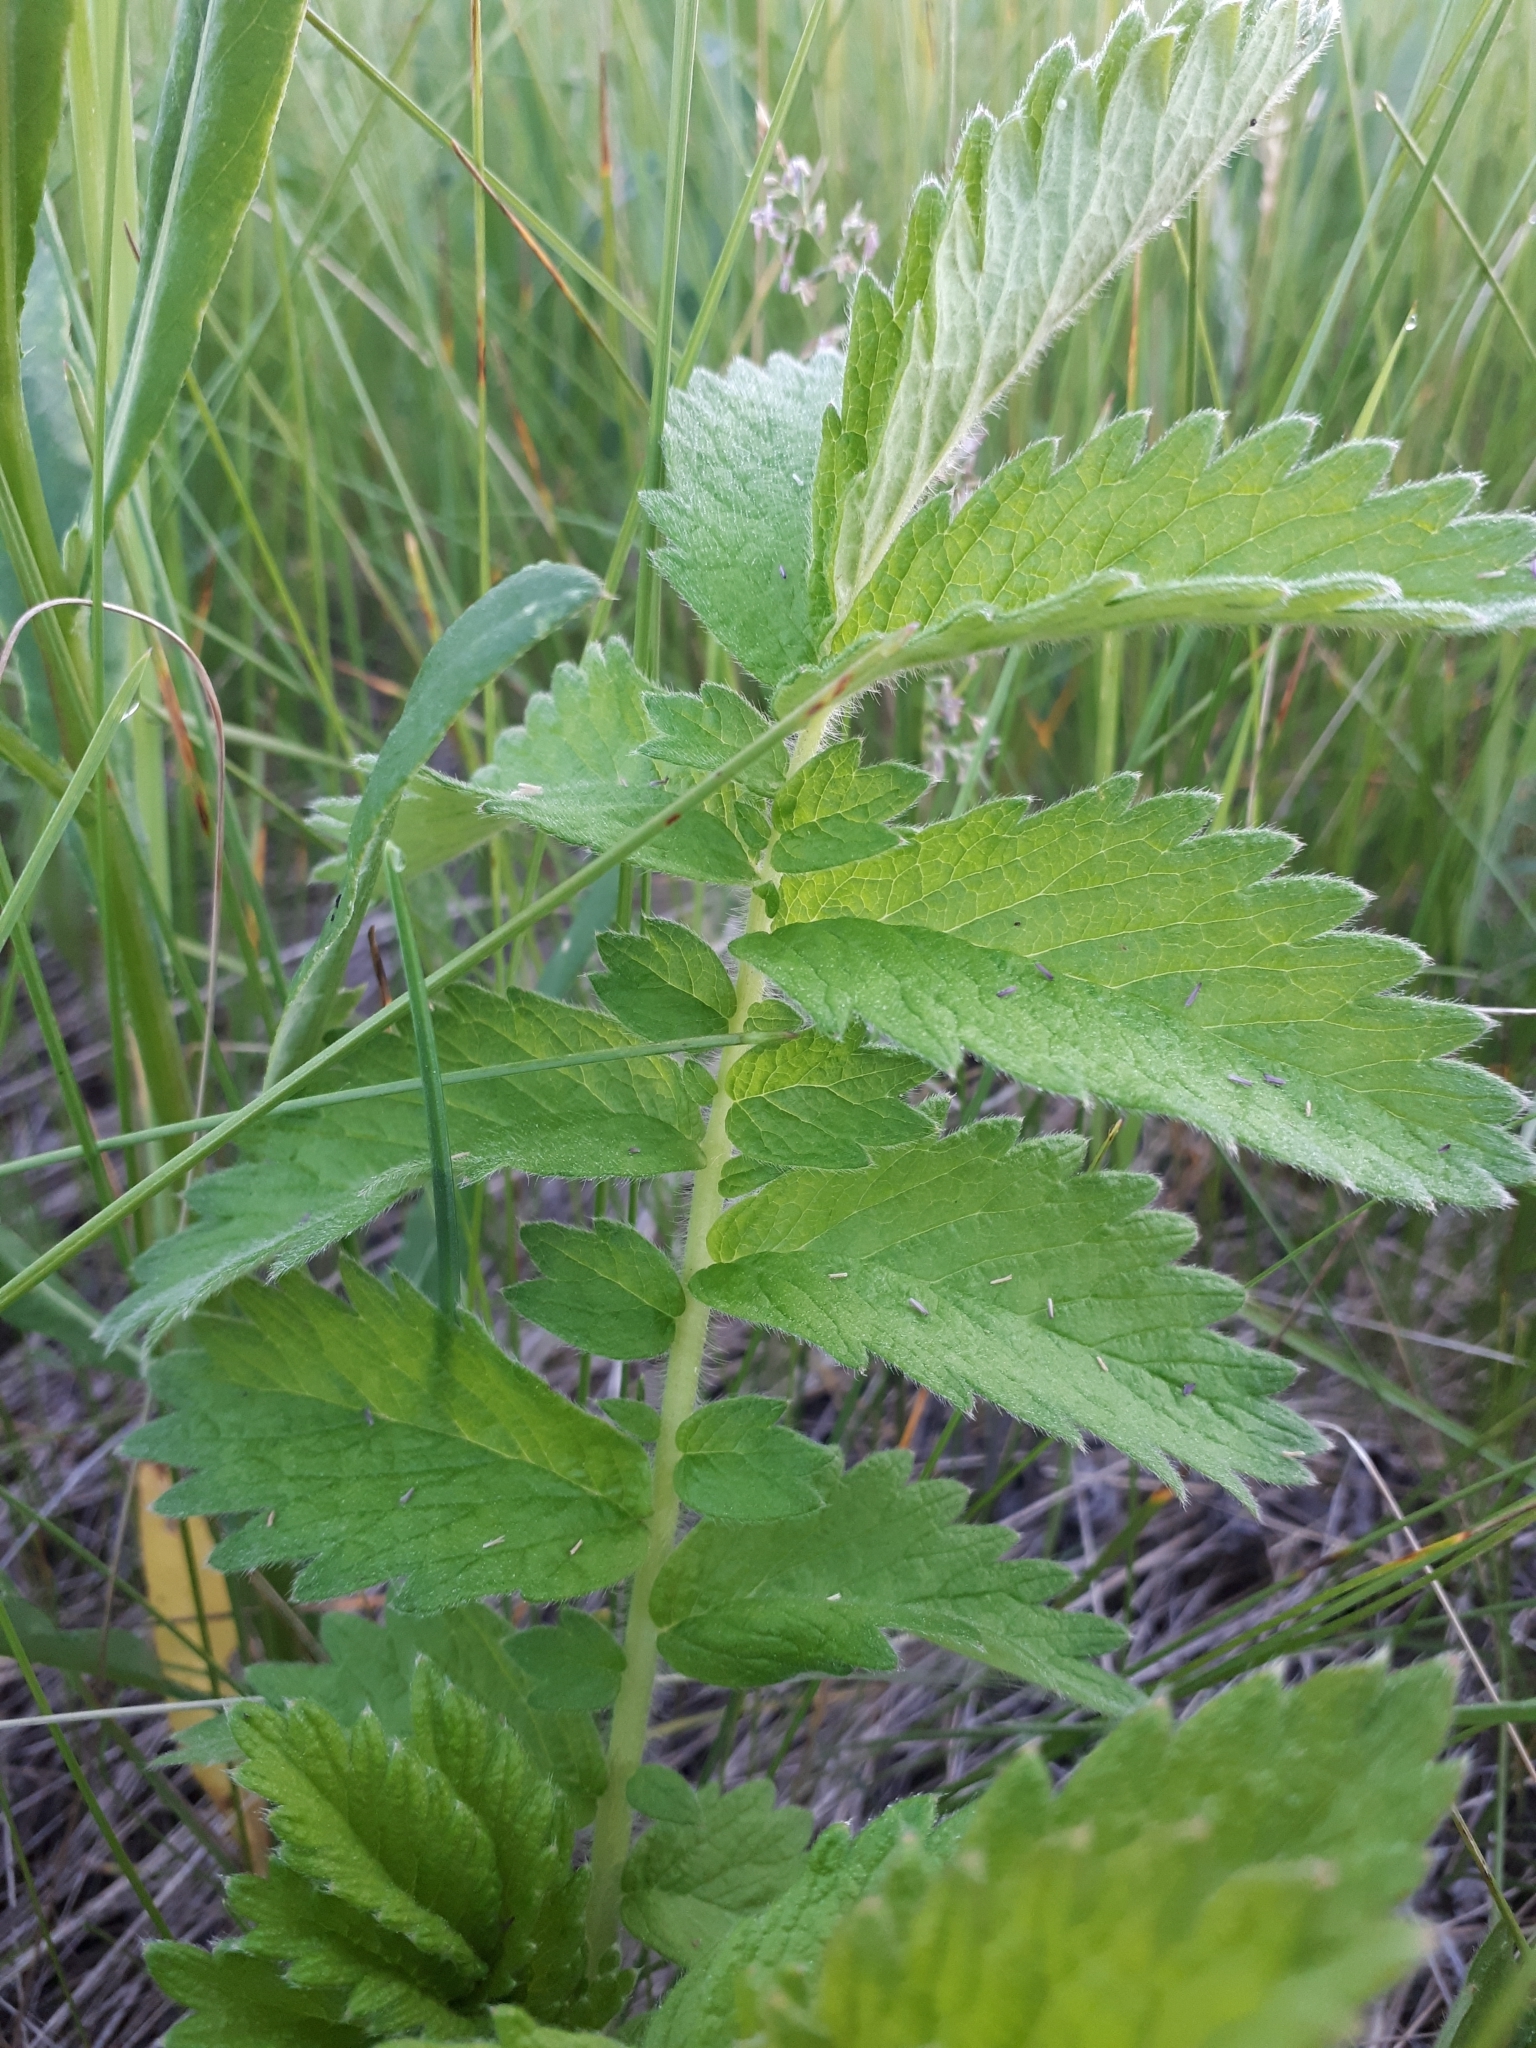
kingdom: Plantae
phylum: Tracheophyta
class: Magnoliopsida
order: Rosales
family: Rosaceae
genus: Agrimonia
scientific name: Agrimonia eupatoria
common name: Agrimony
